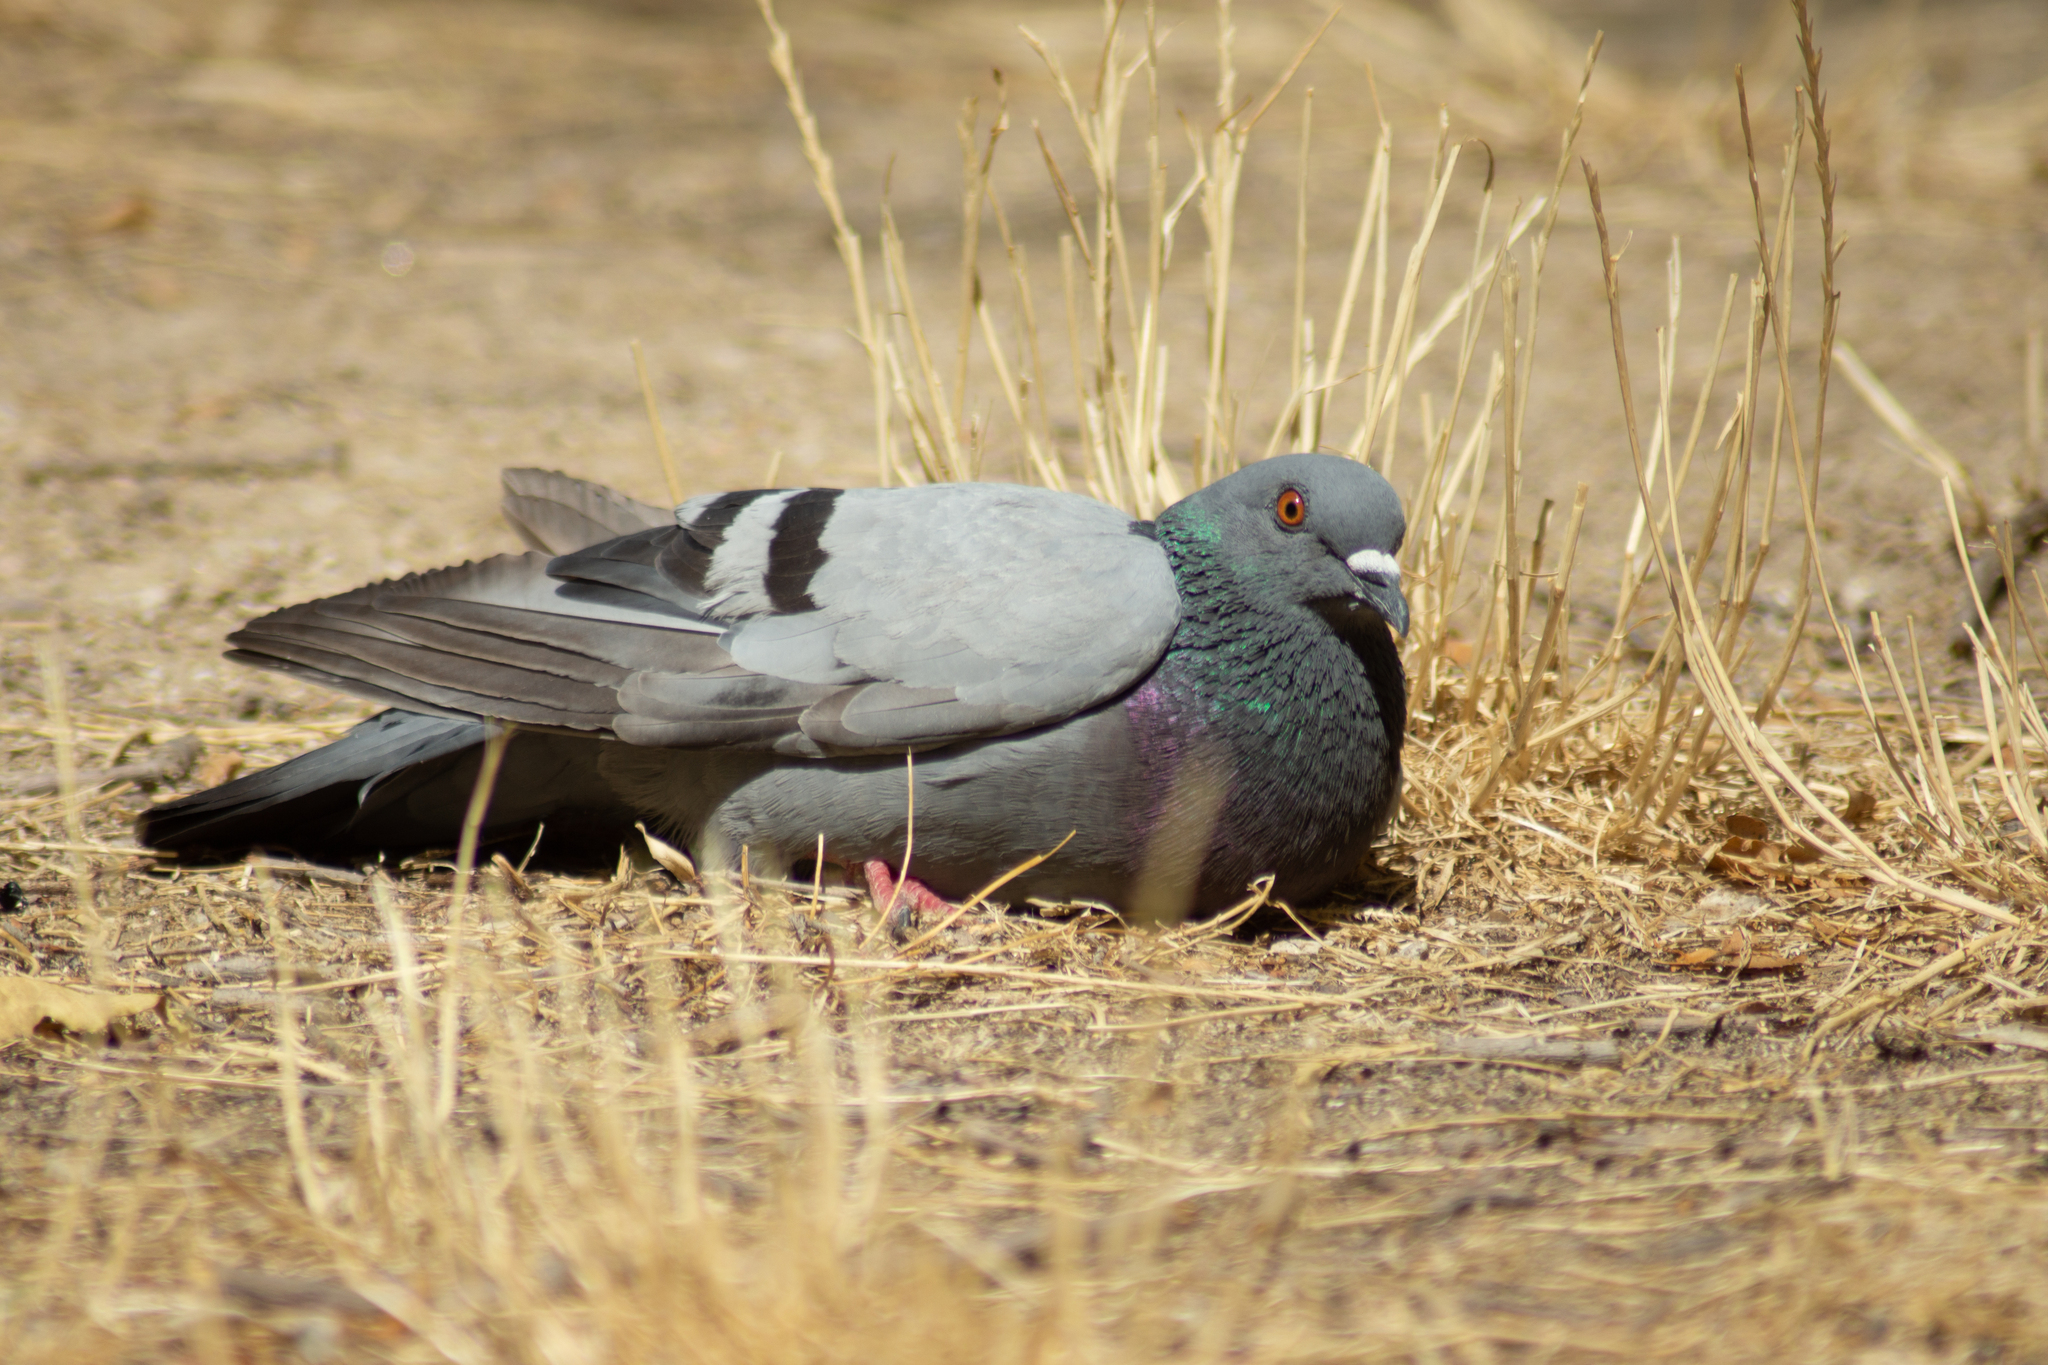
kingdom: Animalia
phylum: Chordata
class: Aves
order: Columbiformes
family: Columbidae
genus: Columba
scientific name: Columba livia
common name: Rock pigeon
